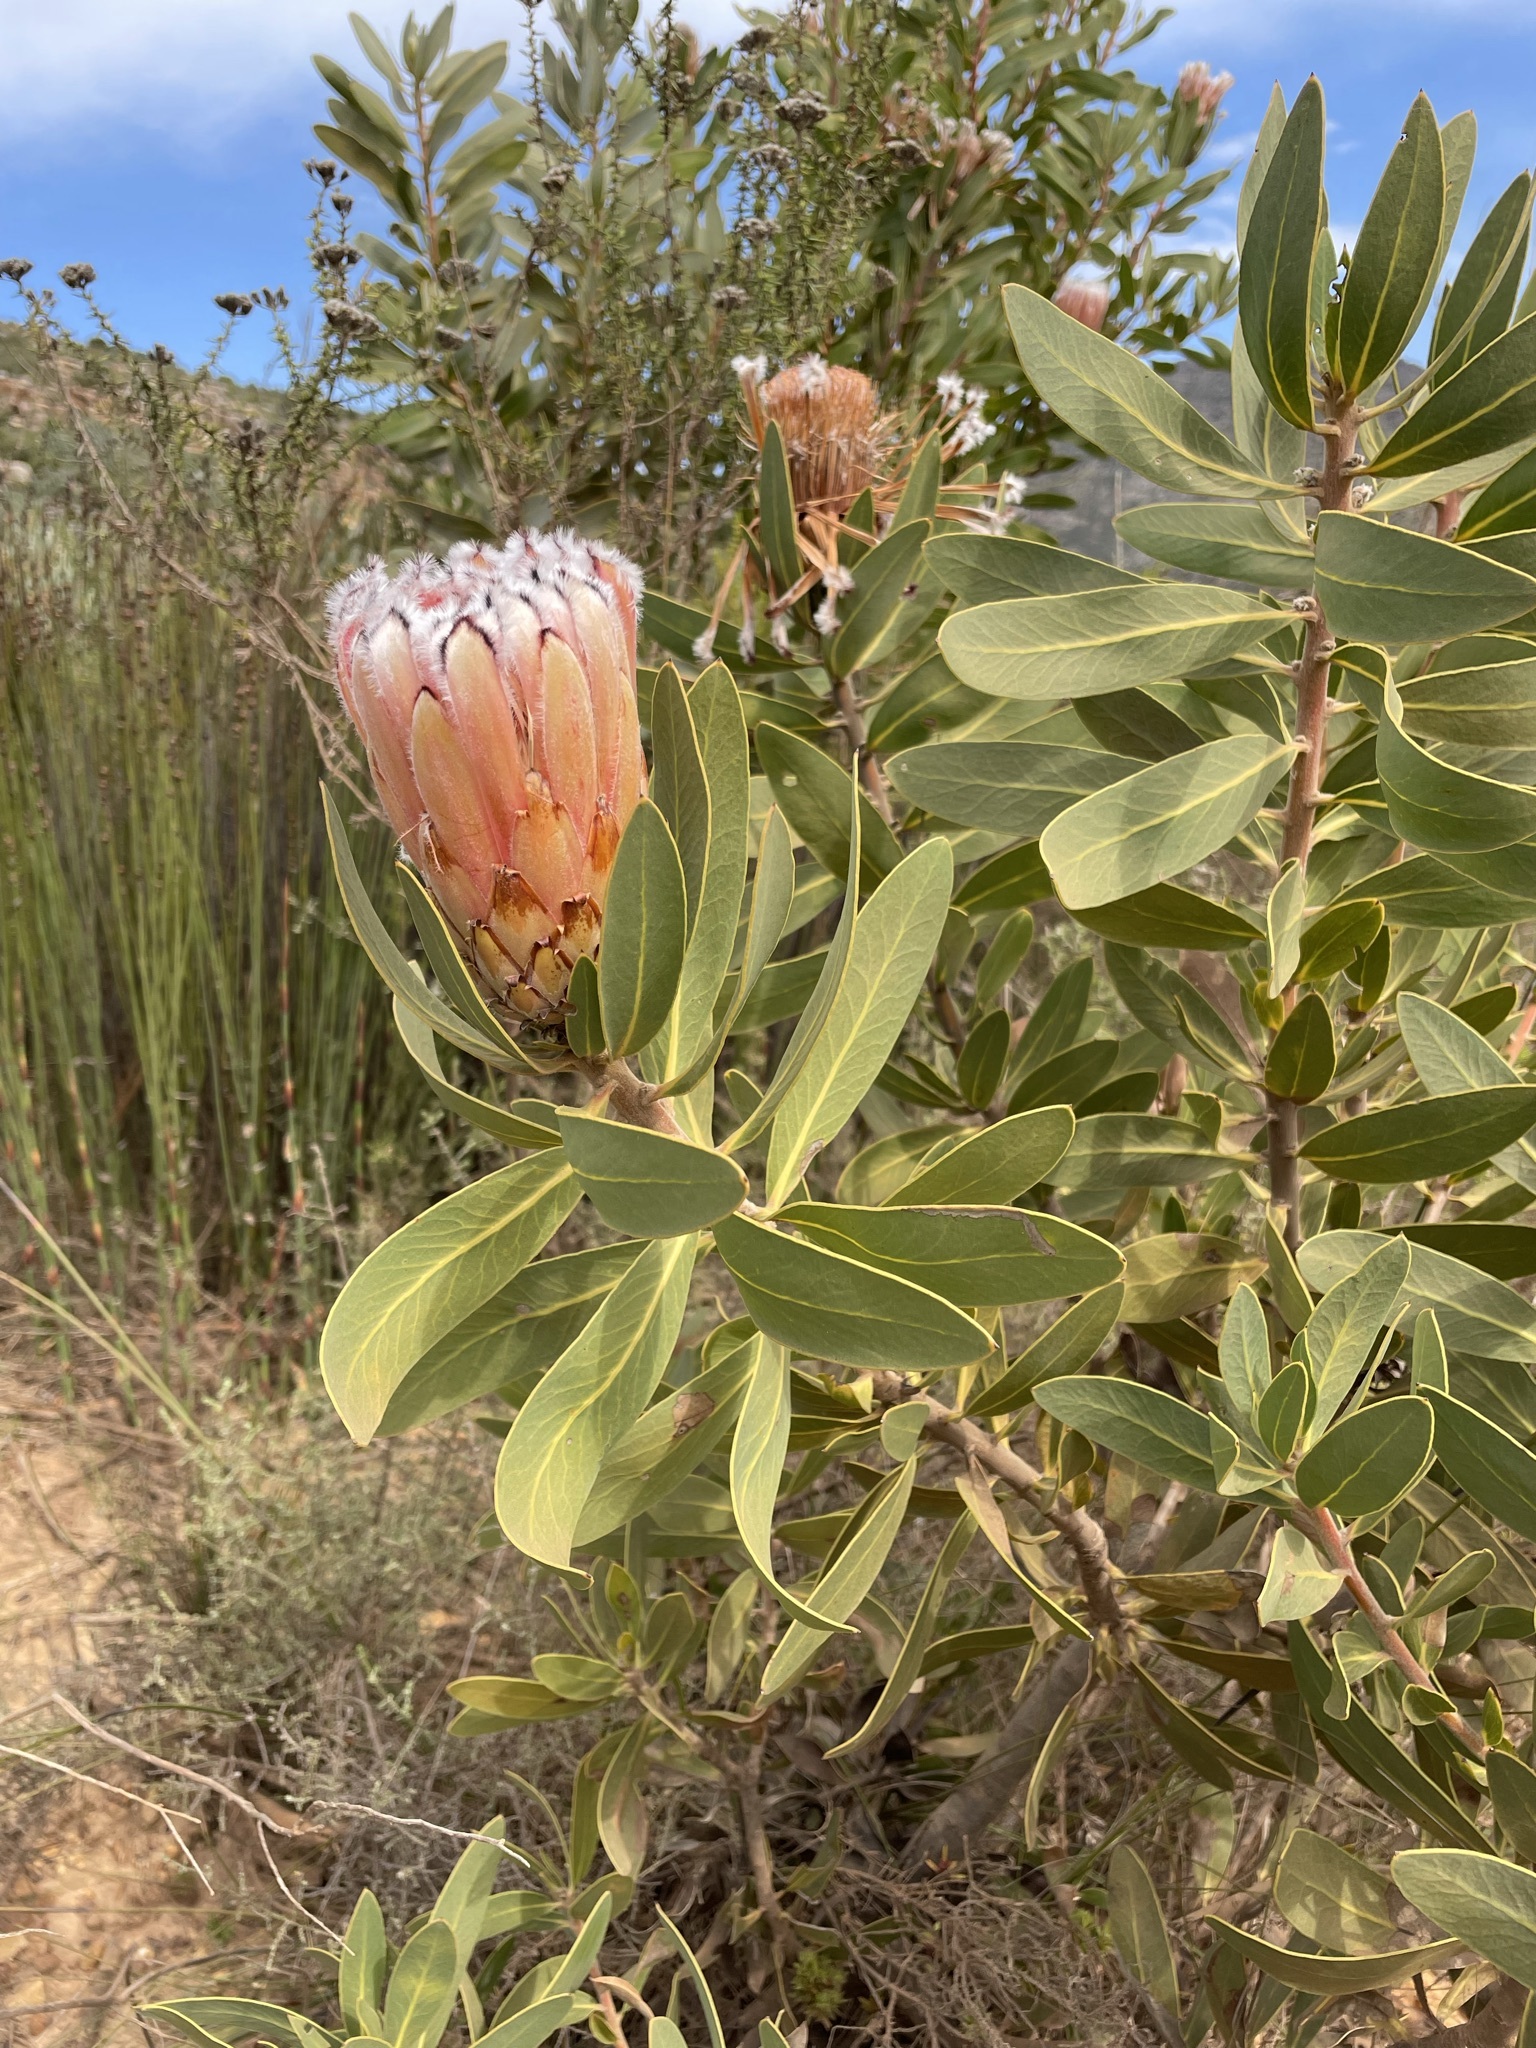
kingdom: Plantae
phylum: Tracheophyta
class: Magnoliopsida
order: Proteales
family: Proteaceae
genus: Protea
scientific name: Protea laurifolia
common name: Grey-leaf sugarbsh
